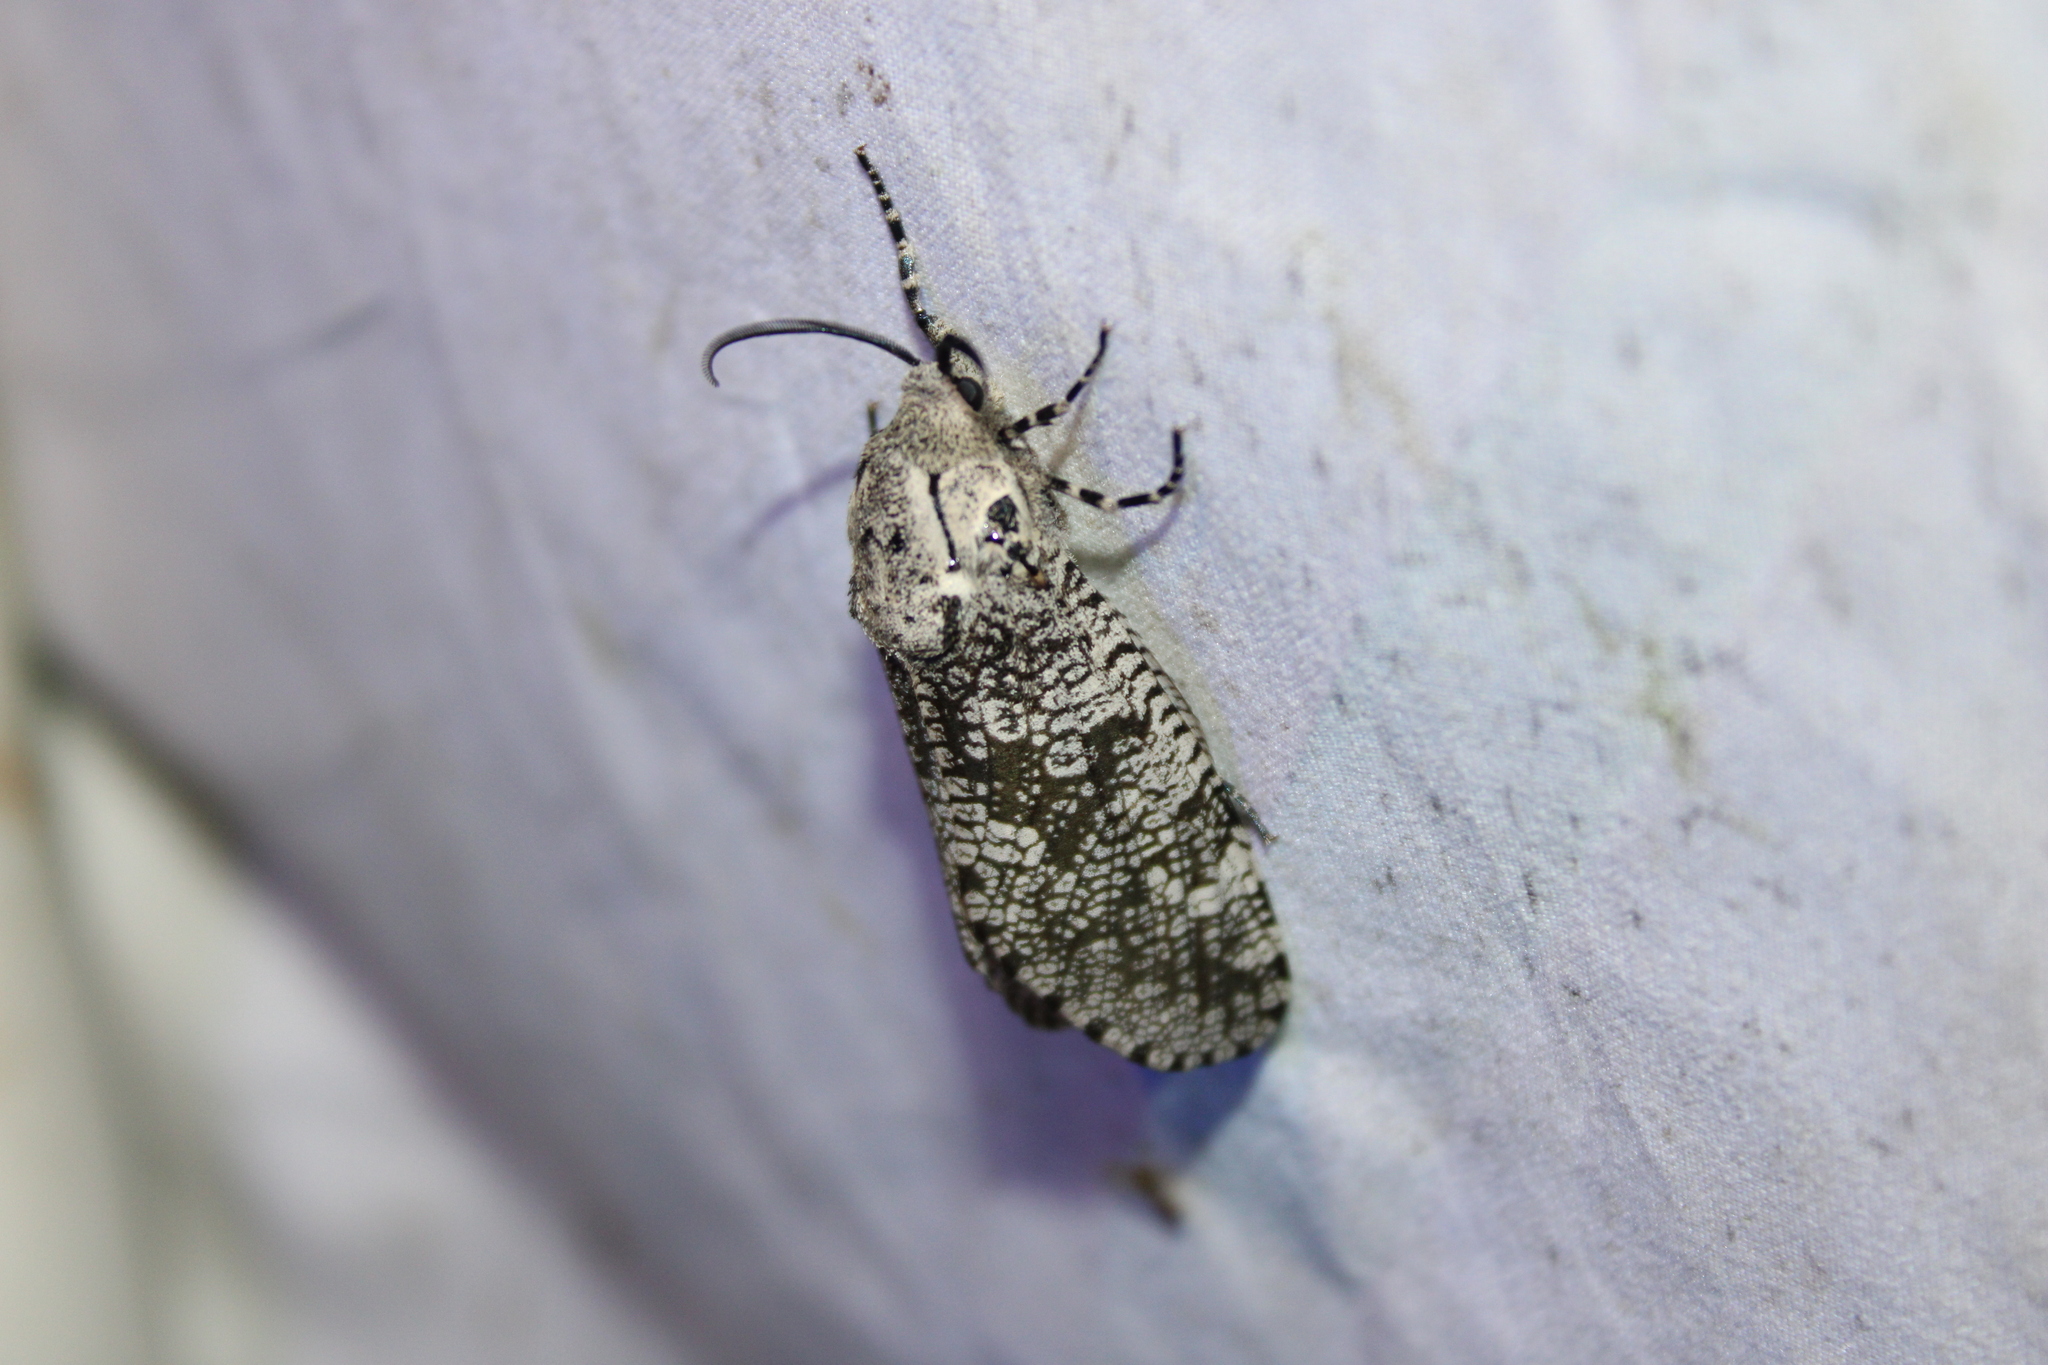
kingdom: Animalia
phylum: Arthropoda
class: Insecta
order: Lepidoptera
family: Cossidae
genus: Prionoxystus
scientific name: Prionoxystus robiniae
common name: Carpenterworm
